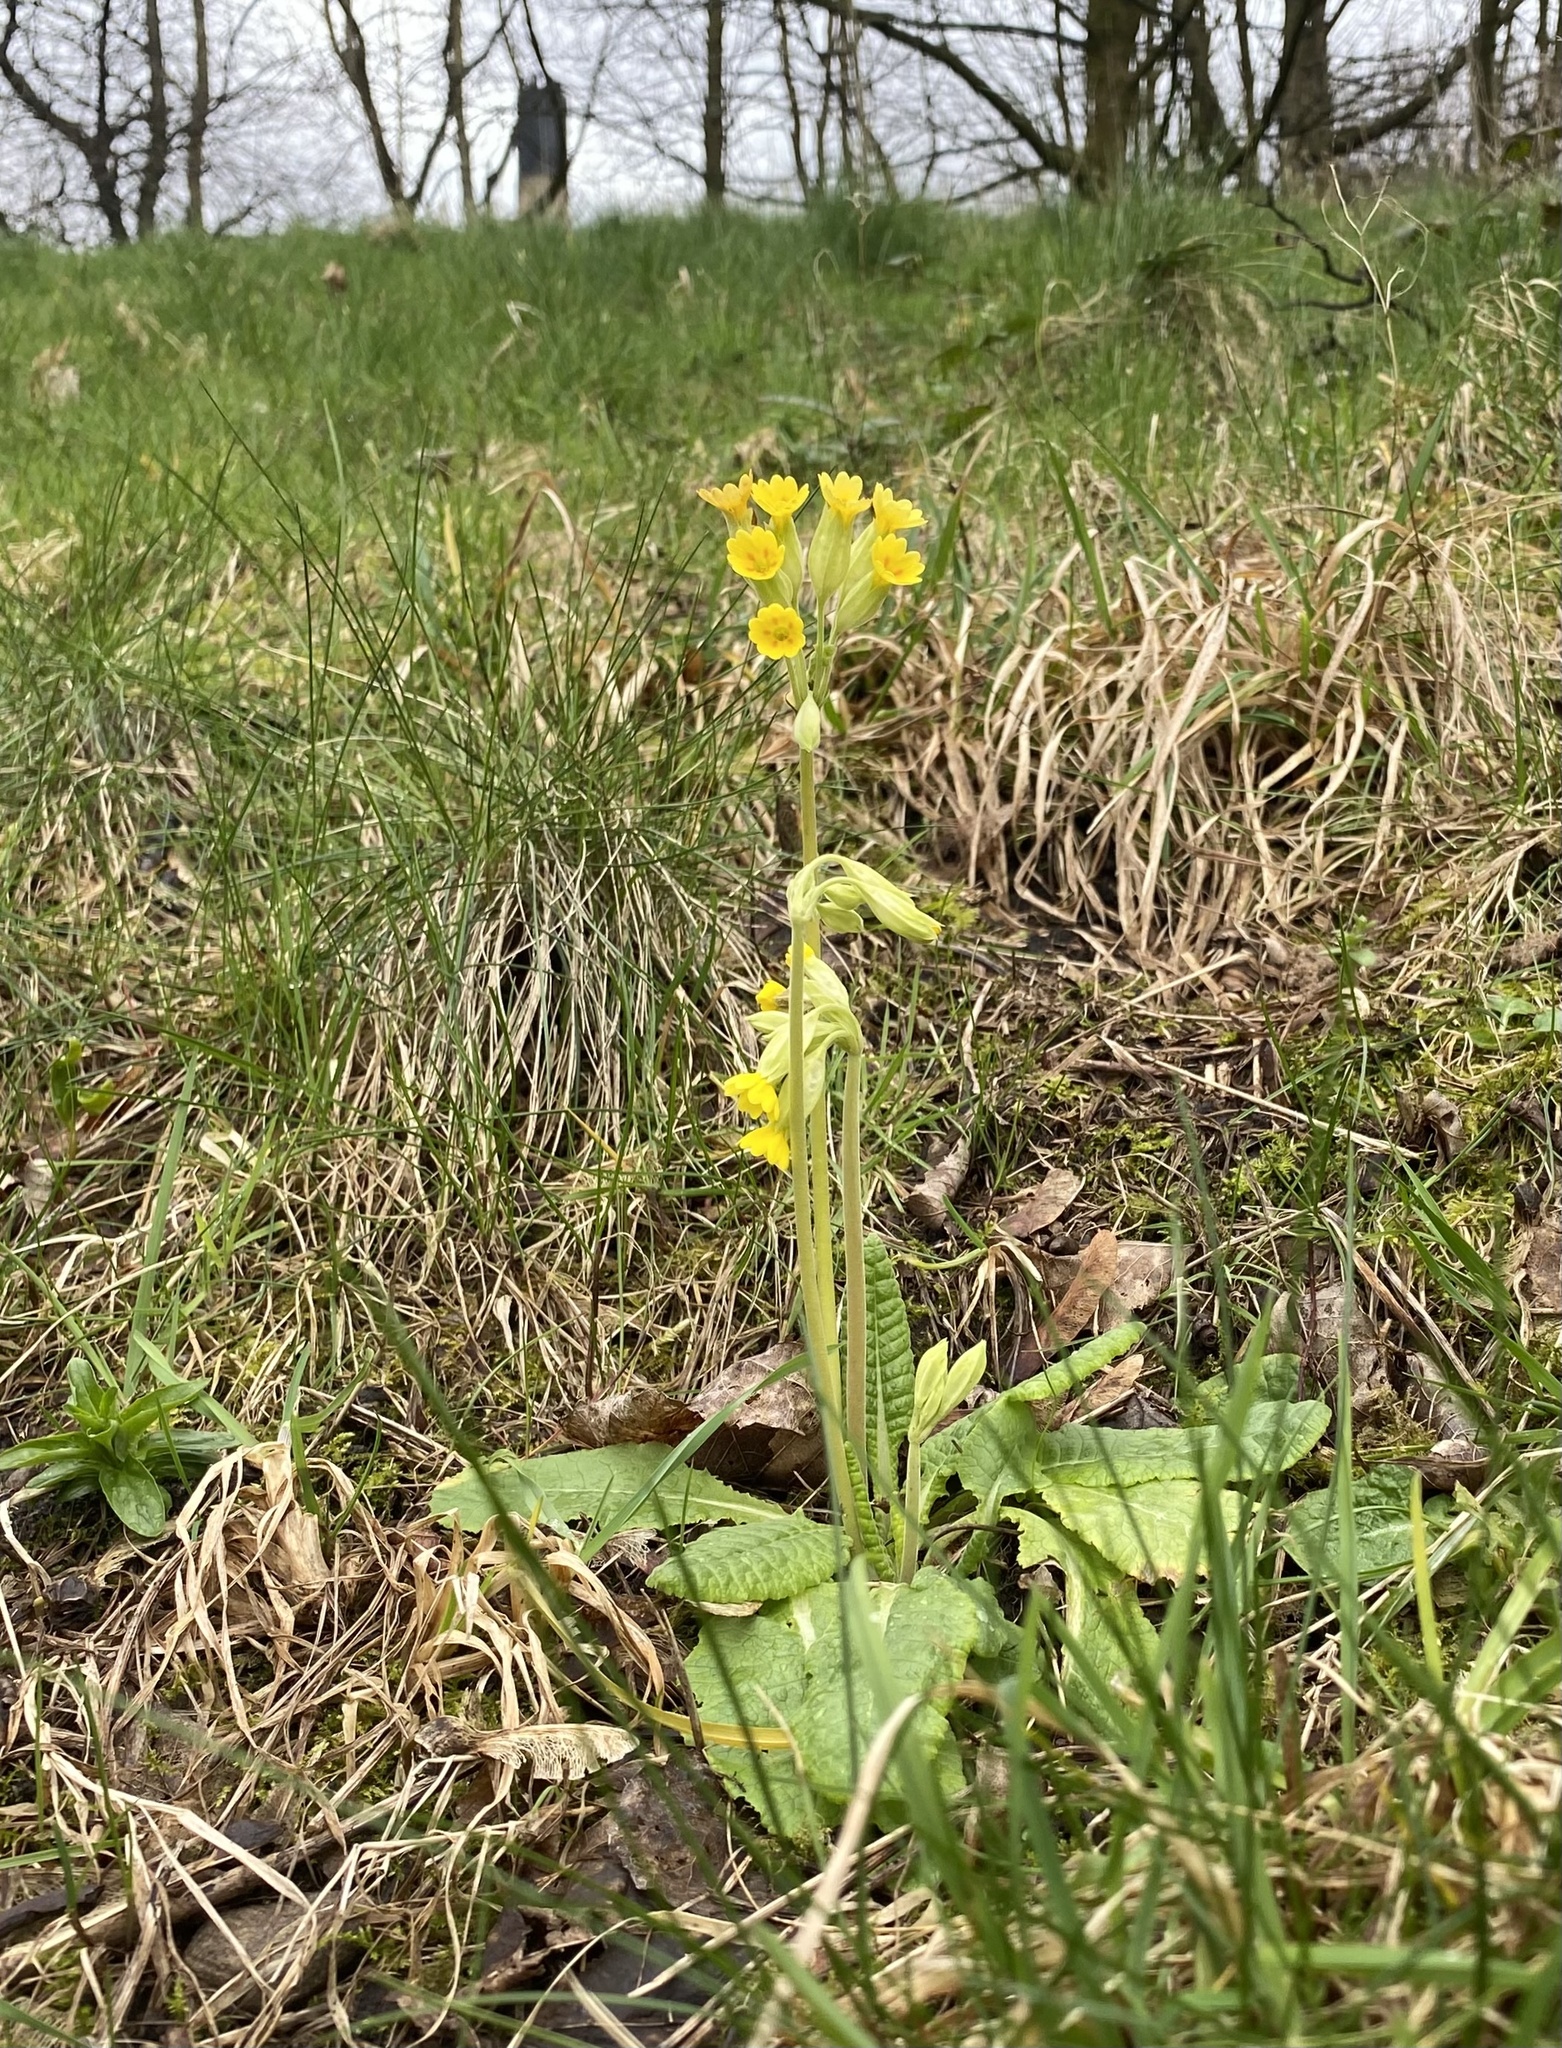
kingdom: Plantae
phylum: Tracheophyta
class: Magnoliopsida
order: Ericales
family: Primulaceae
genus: Primula
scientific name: Primula veris
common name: Cowslip
